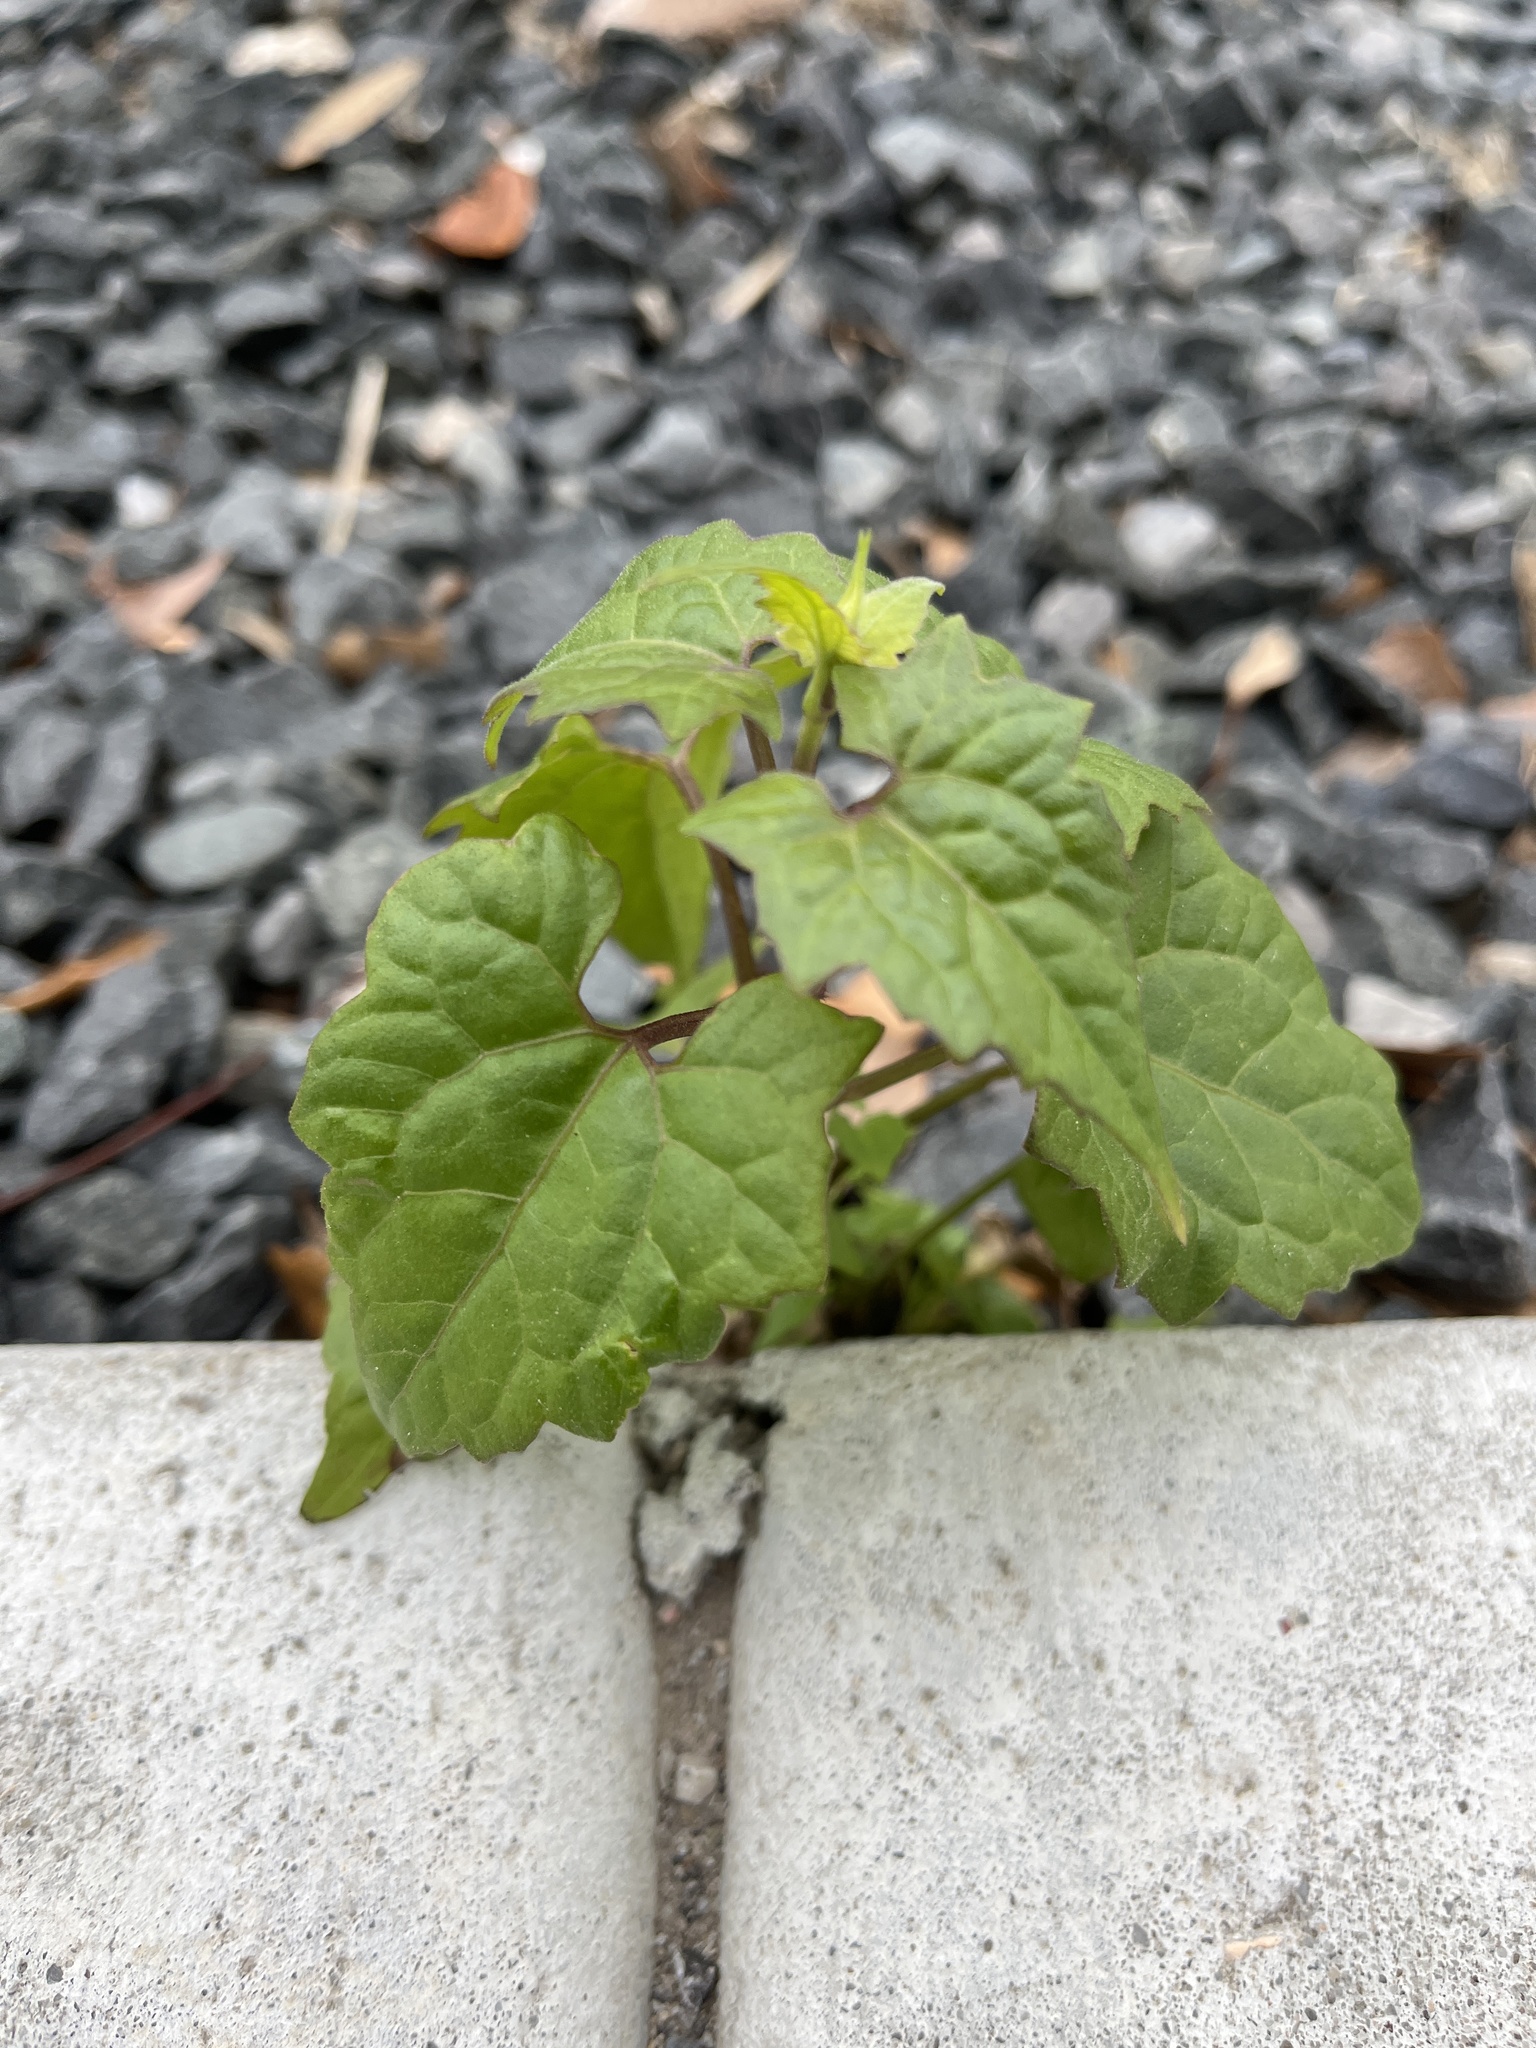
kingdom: Plantae
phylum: Tracheophyta
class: Magnoliopsida
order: Asterales
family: Asteraceae
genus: Mikania
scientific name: Mikania scandens
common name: Climbing hempvine
